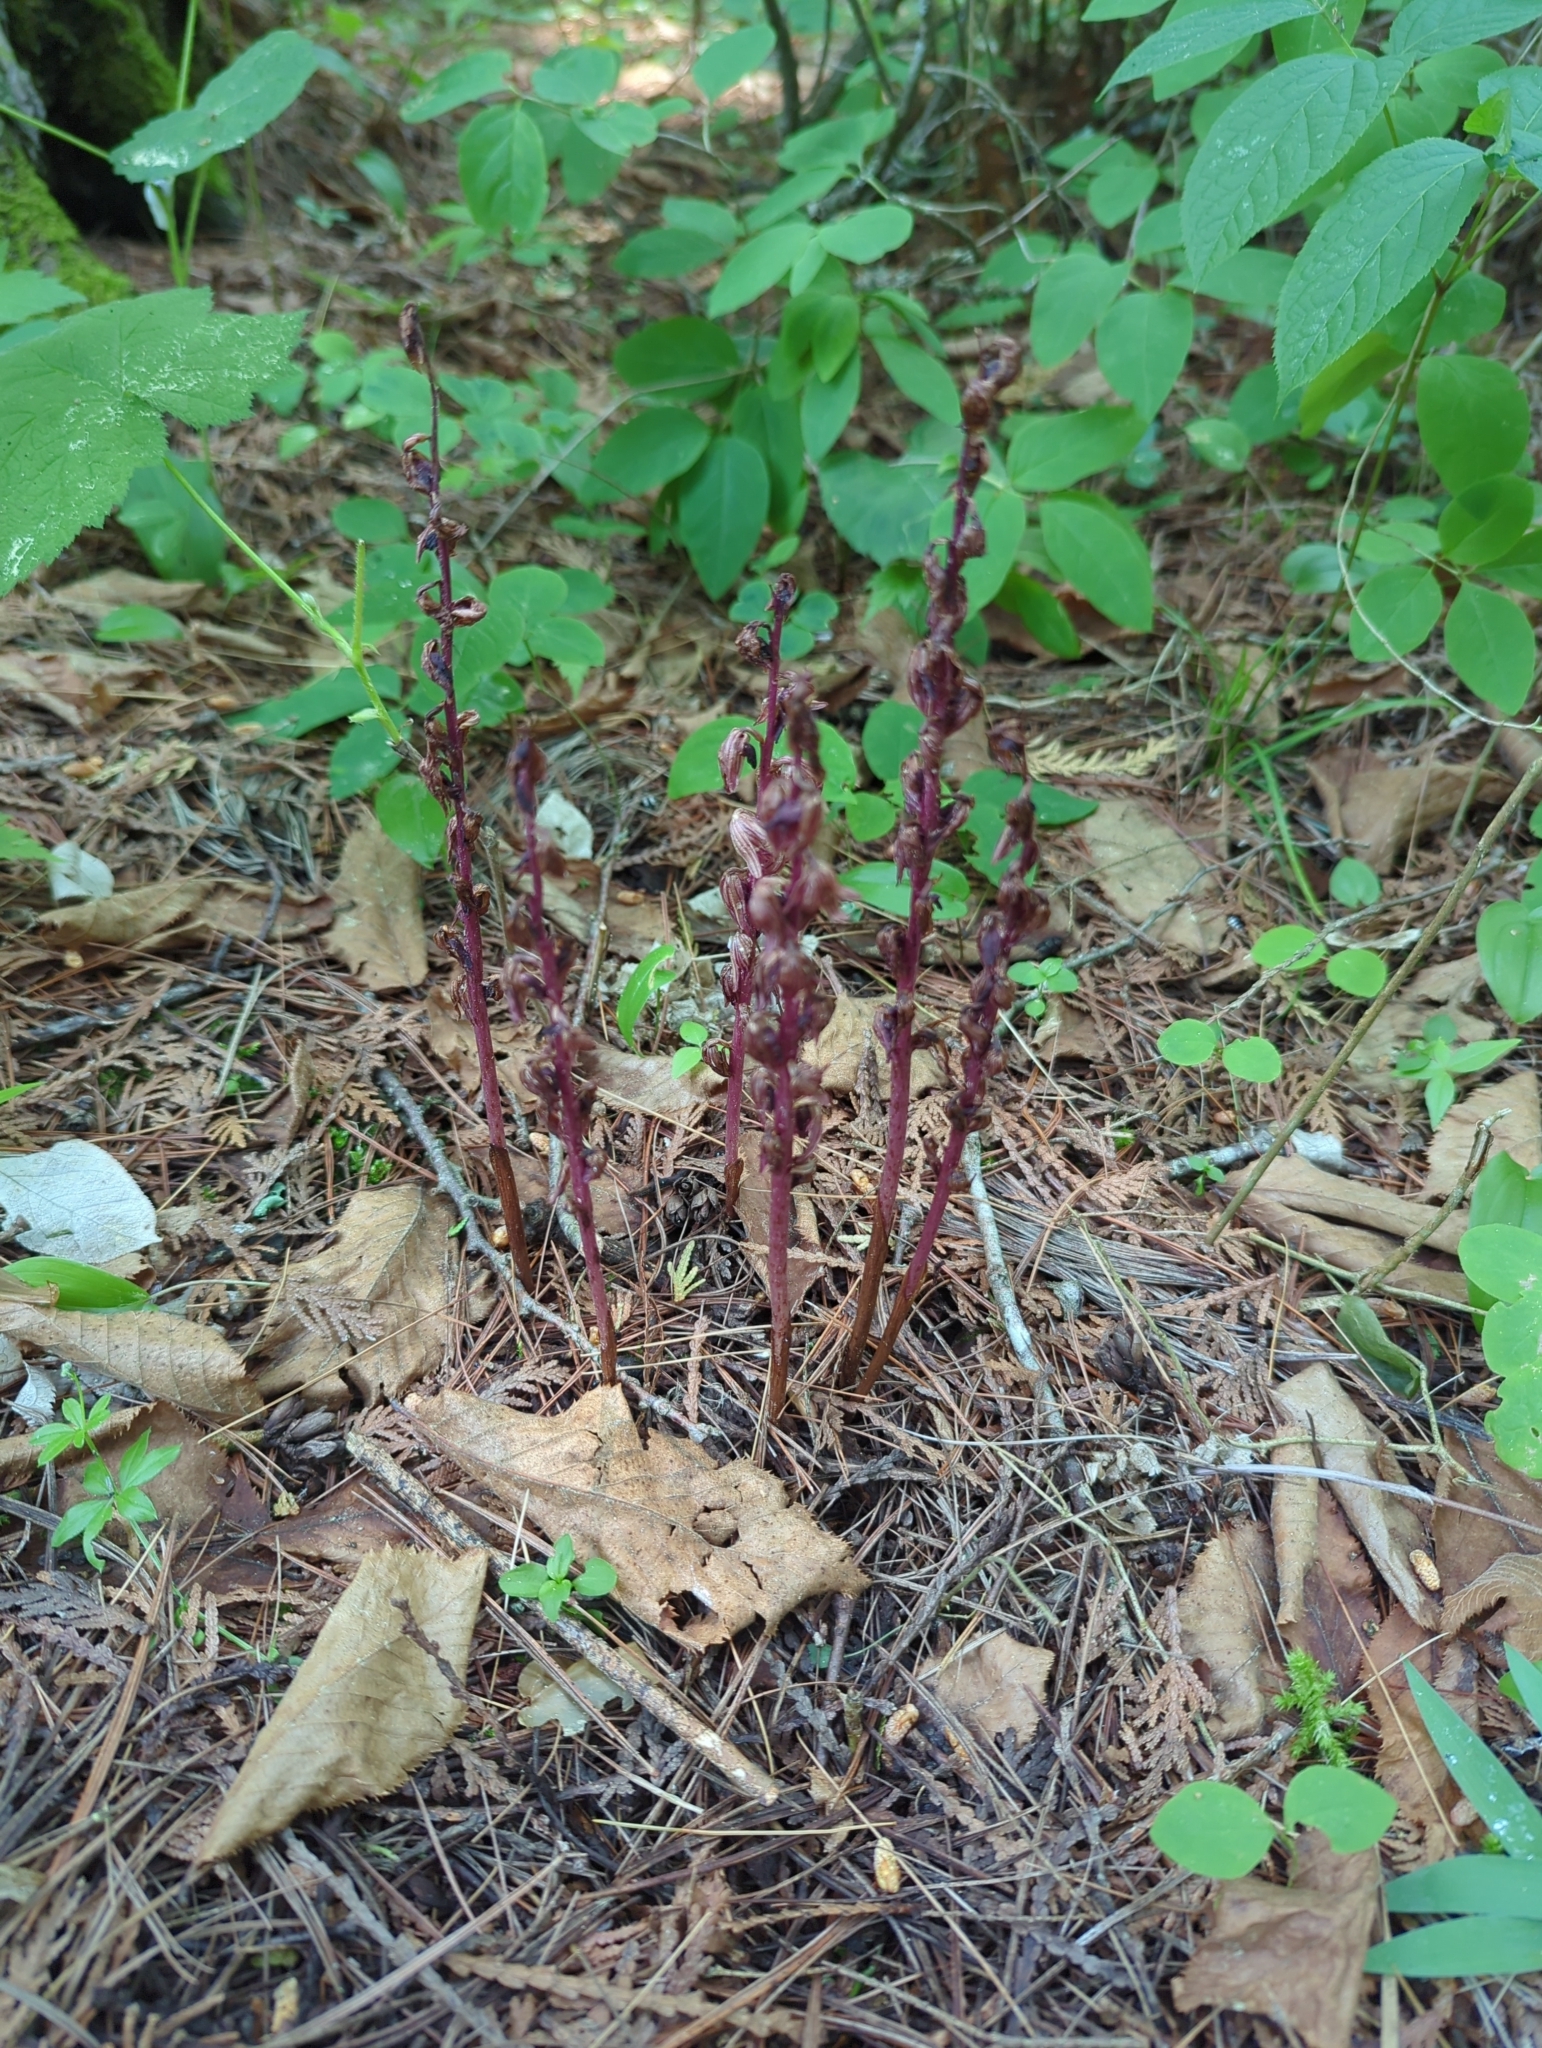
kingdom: Plantae
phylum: Tracheophyta
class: Liliopsida
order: Asparagales
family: Orchidaceae
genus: Corallorhiza
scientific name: Corallorhiza striata
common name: Hooded coralroot
